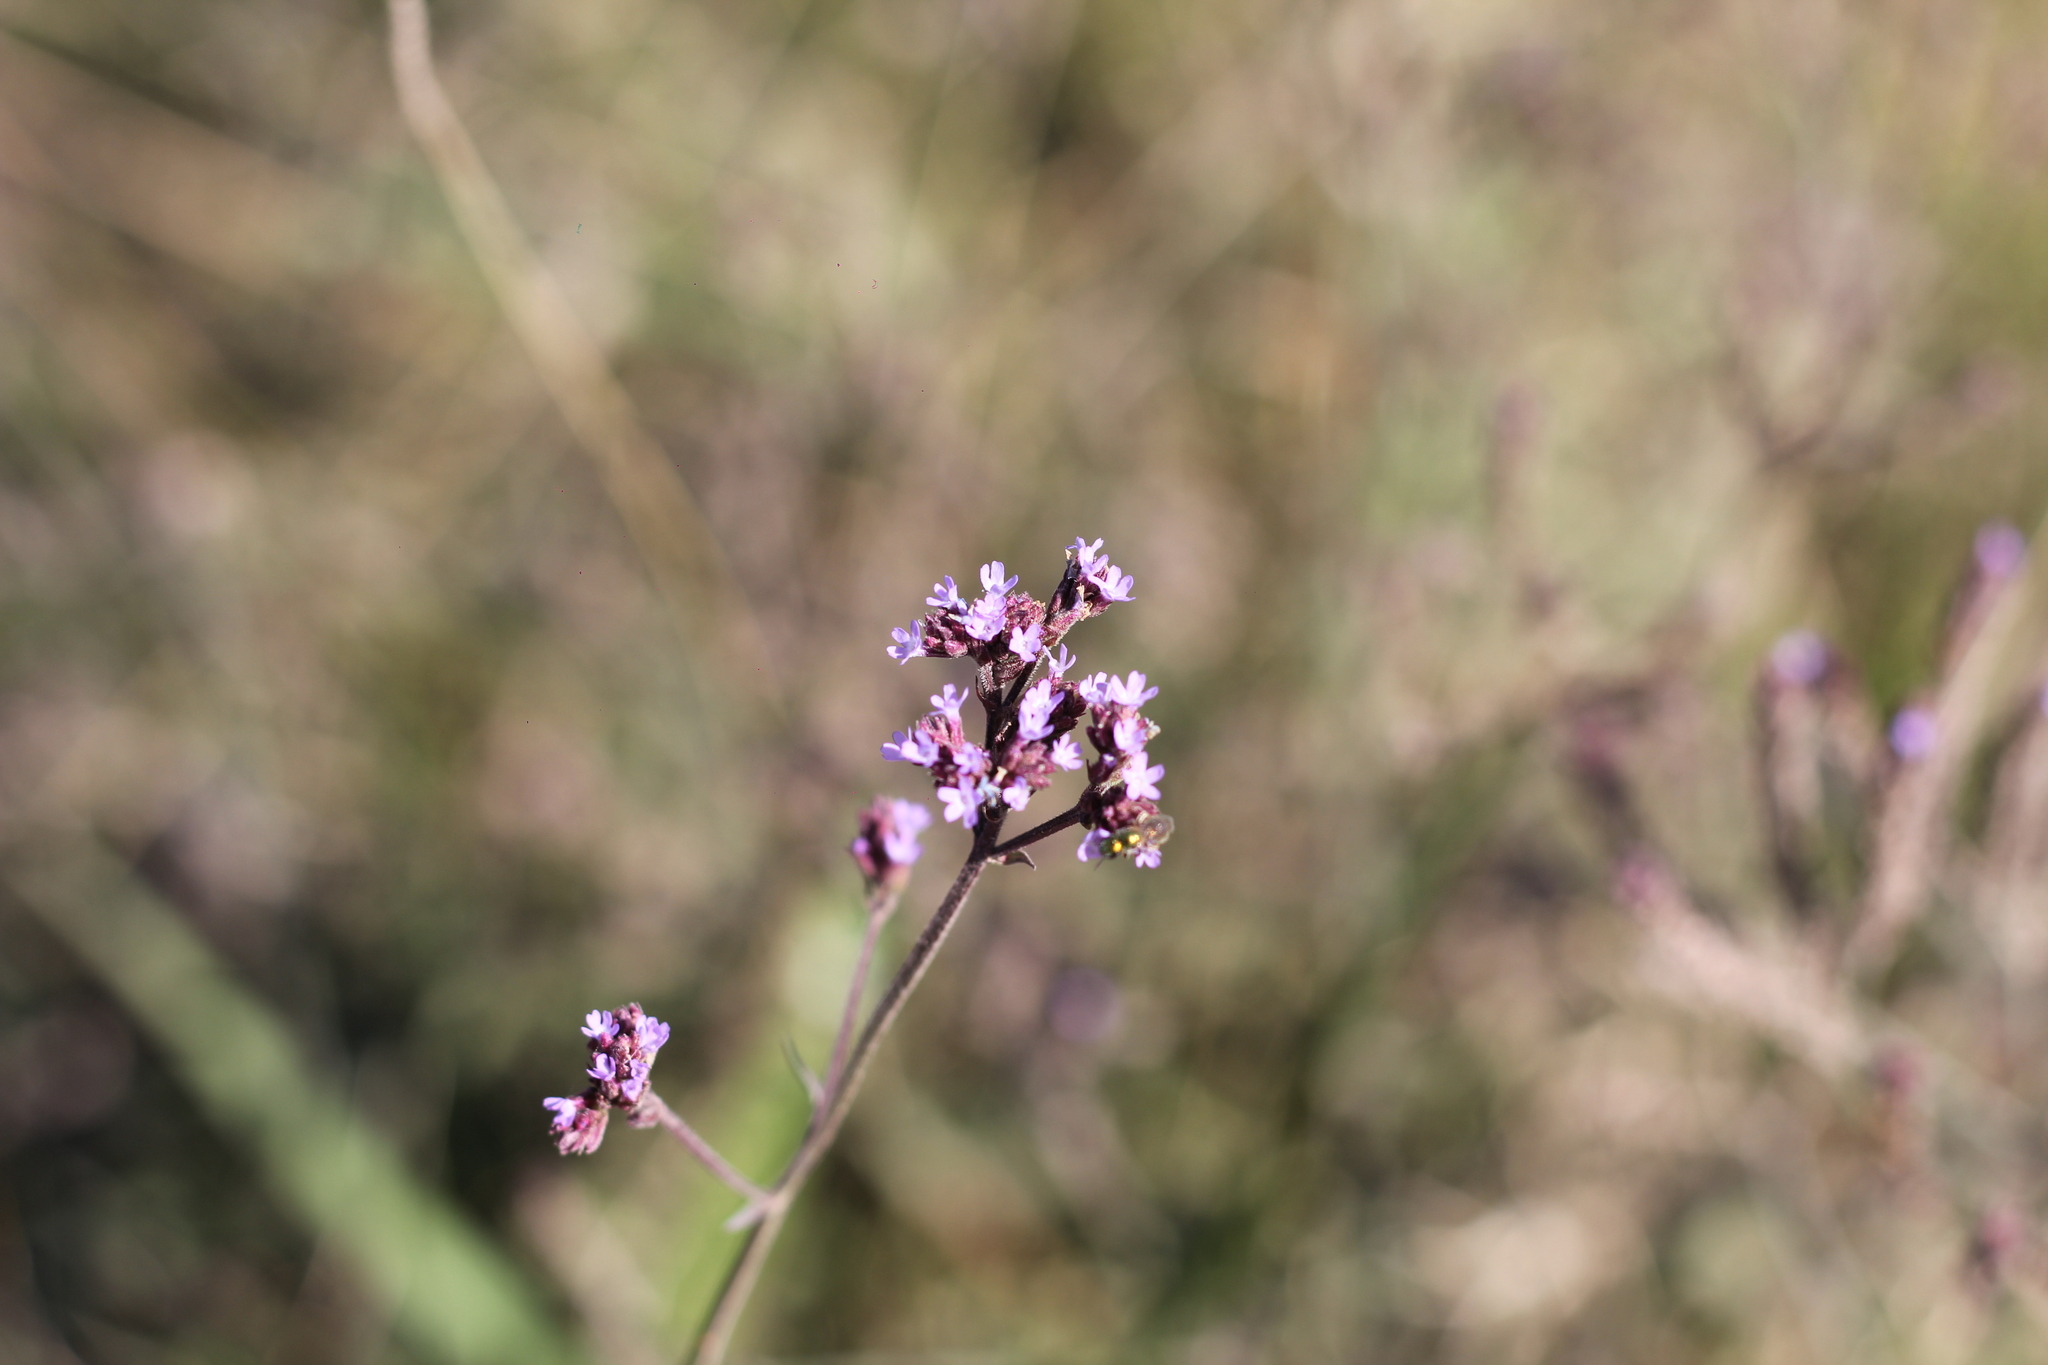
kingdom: Plantae
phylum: Tracheophyta
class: Magnoliopsida
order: Lamiales
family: Verbenaceae
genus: Verbena
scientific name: Verbena bonariensis
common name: Purpletop vervain
